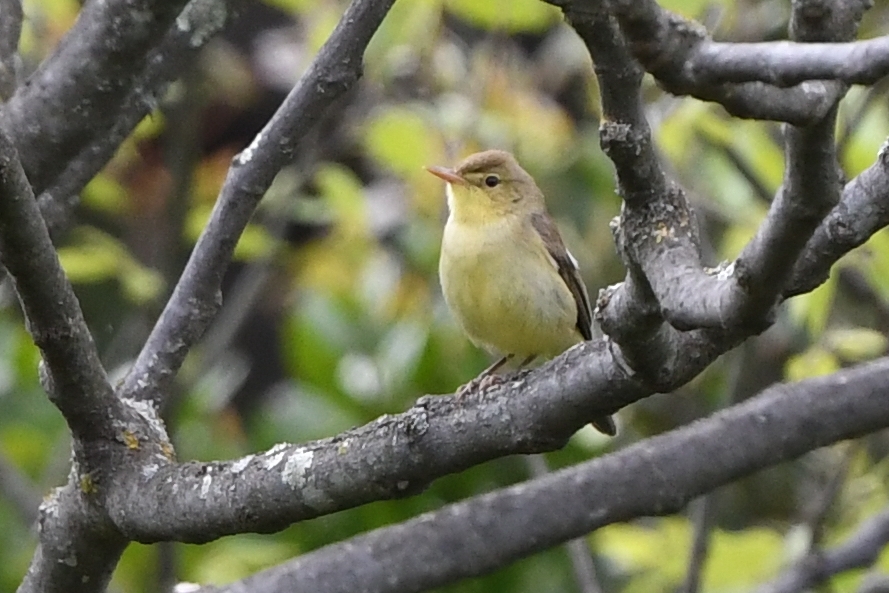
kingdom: Animalia
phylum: Chordata
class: Aves
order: Passeriformes
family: Acrocephalidae
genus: Hippolais
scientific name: Hippolais polyglotta
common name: Melodious warbler
